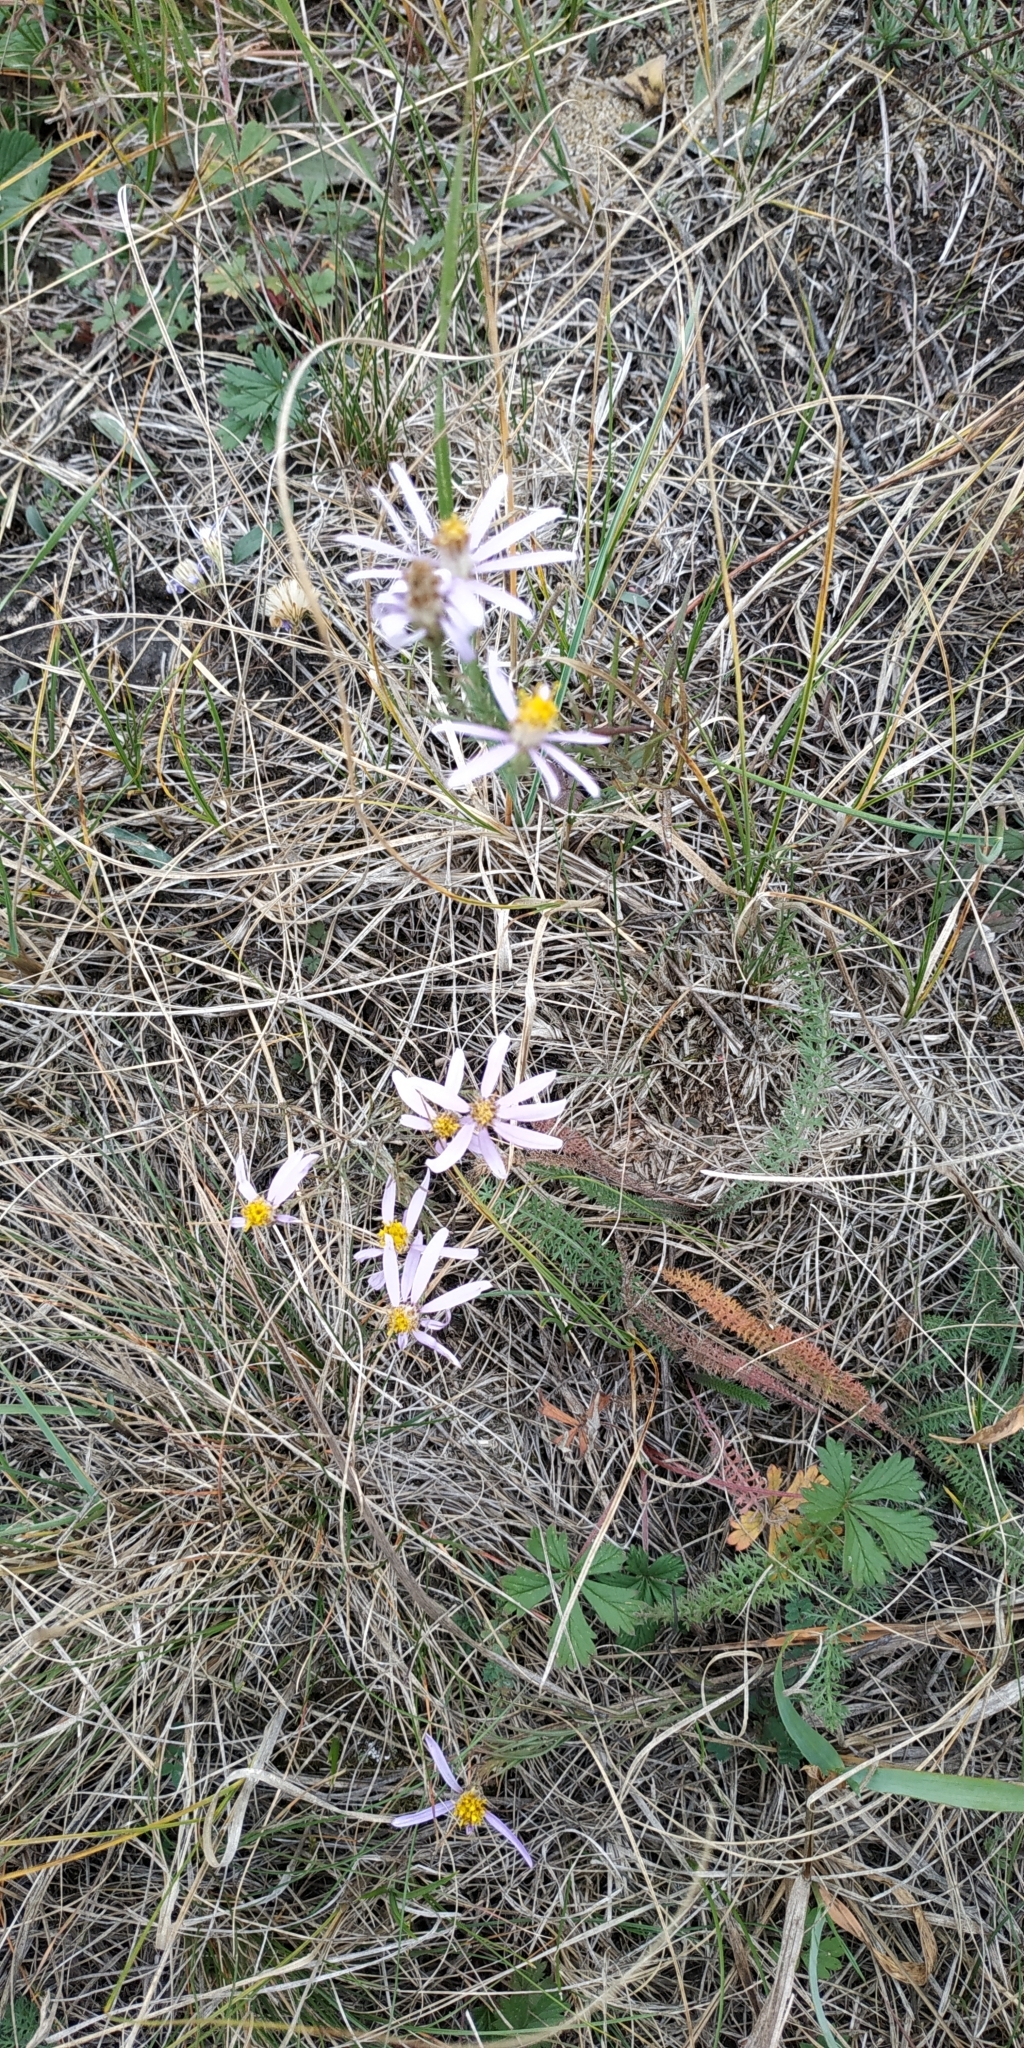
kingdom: Plantae
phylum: Tracheophyta
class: Magnoliopsida
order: Asterales
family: Asteraceae
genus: Galatella
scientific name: Galatella angustissima
